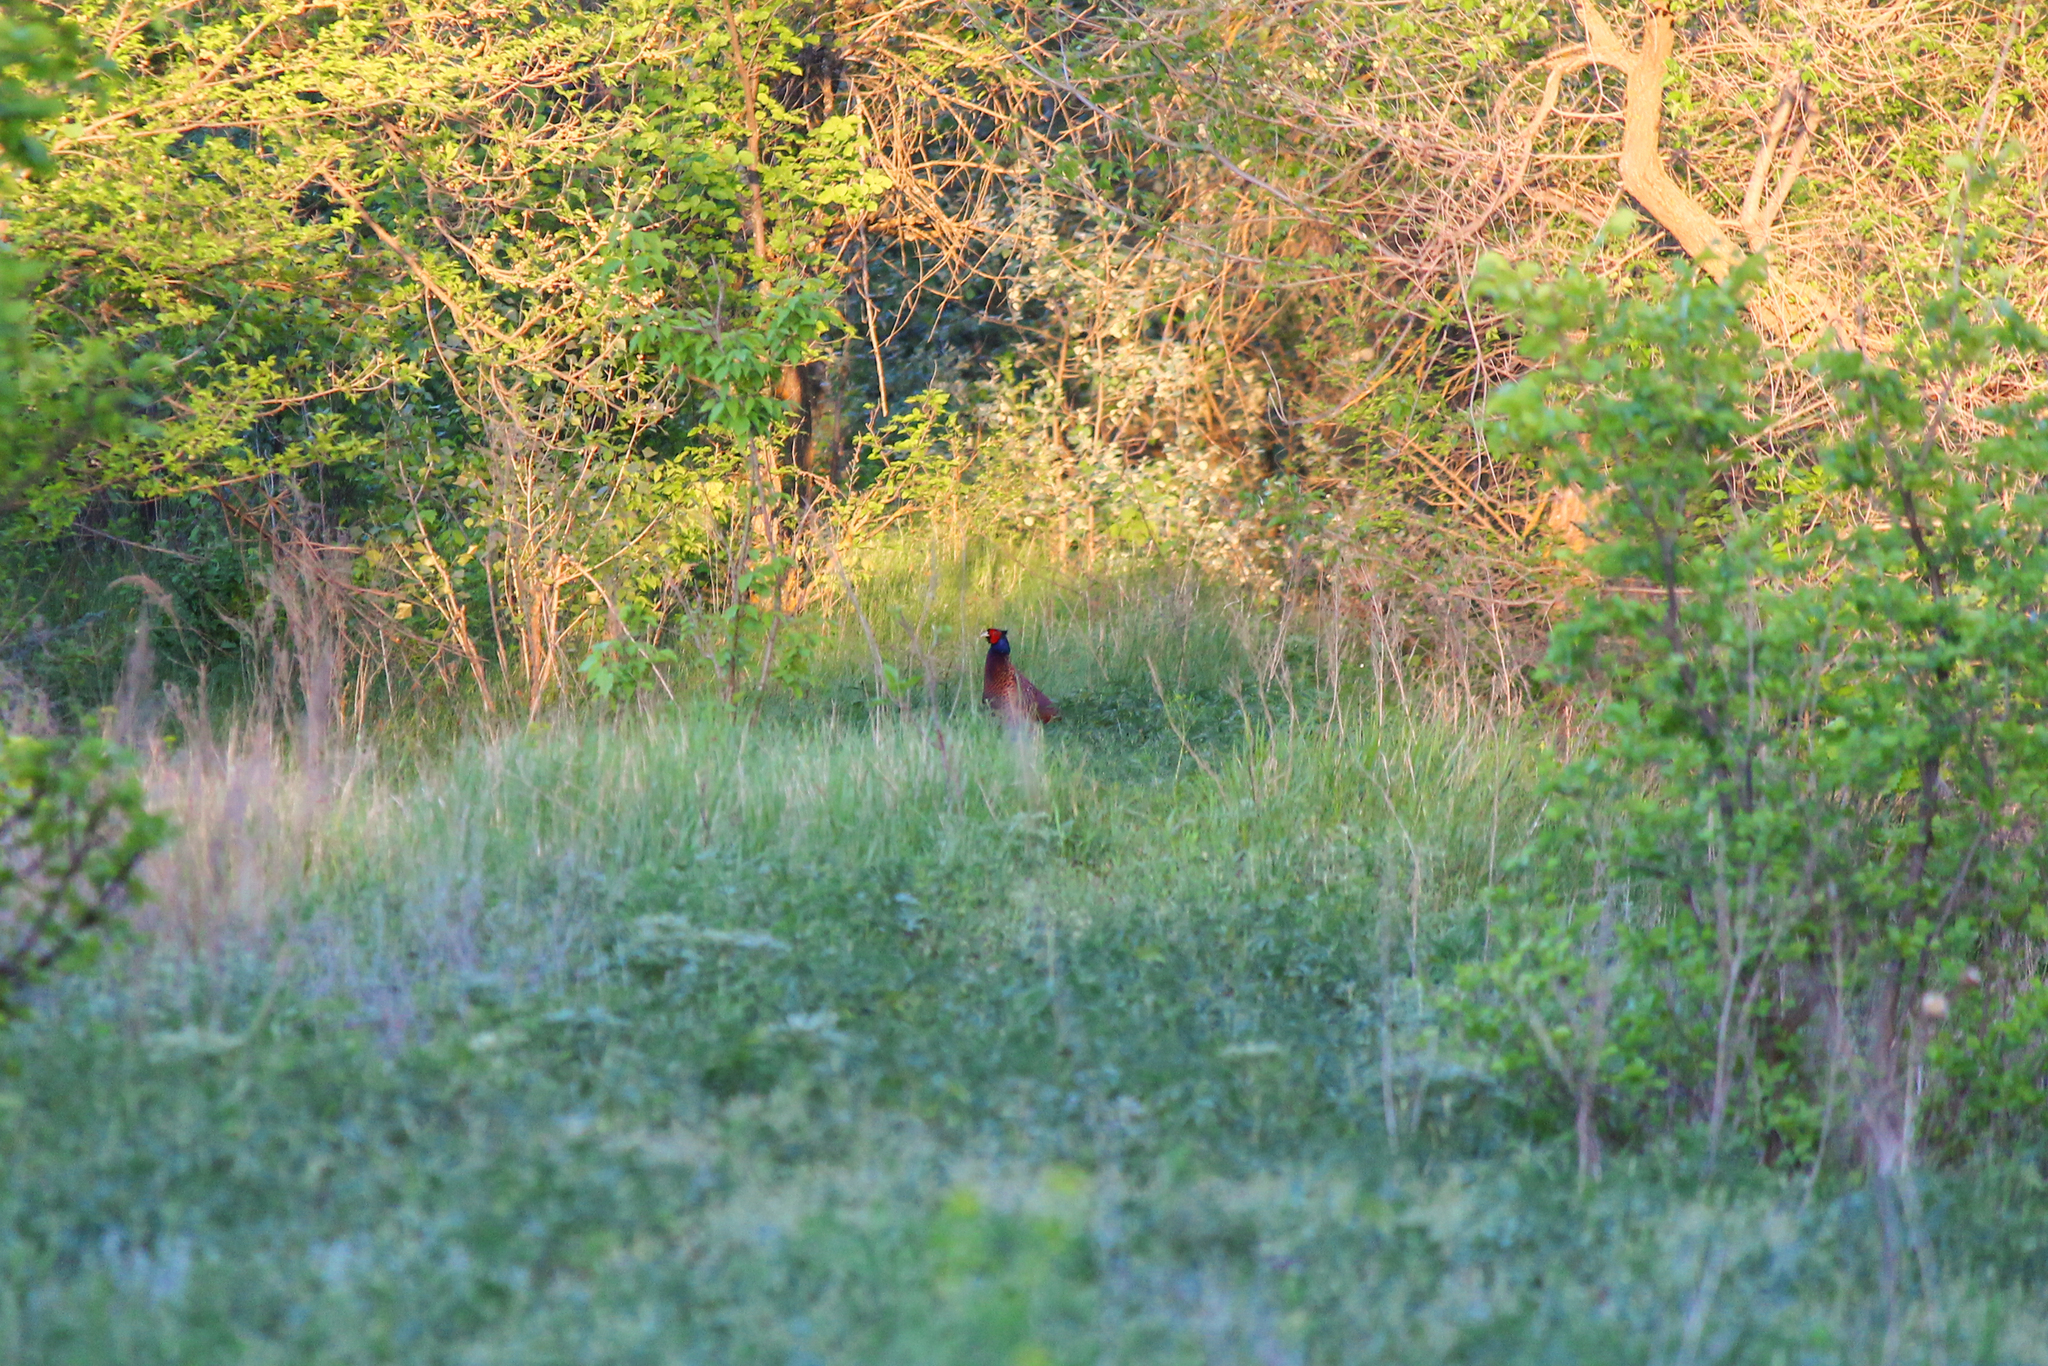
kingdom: Animalia
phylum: Chordata
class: Aves
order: Galliformes
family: Phasianidae
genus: Phasianus
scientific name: Phasianus colchicus
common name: Common pheasant
